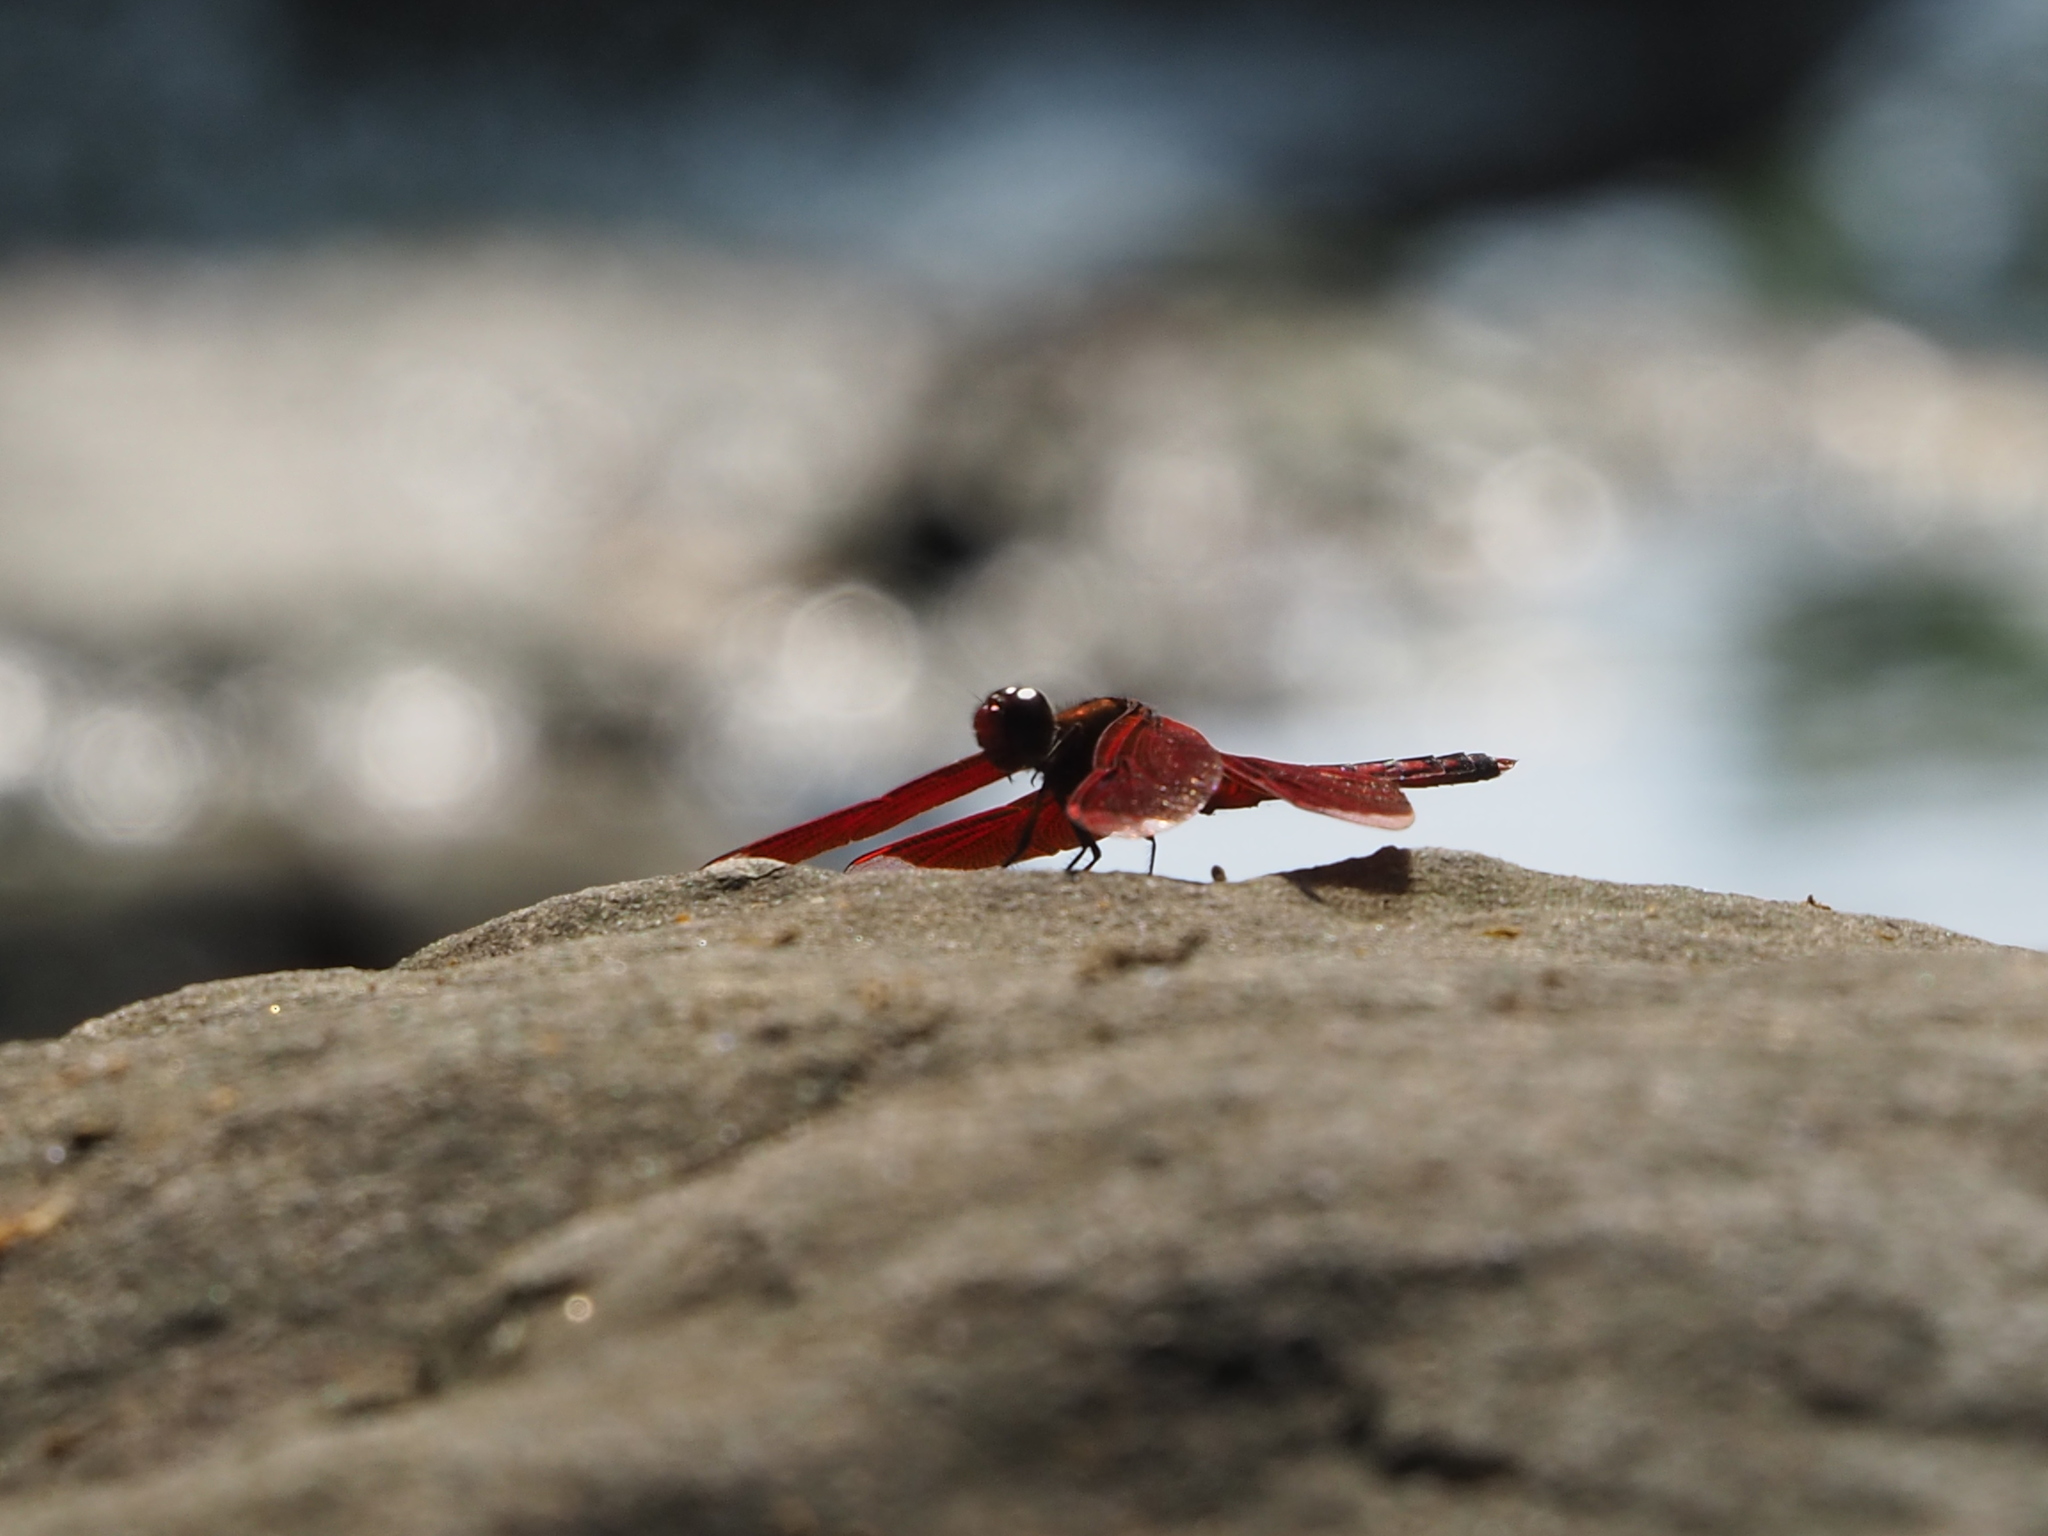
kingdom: Animalia
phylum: Arthropoda
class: Insecta
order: Odonata
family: Libellulidae
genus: Neurothemis
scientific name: Neurothemis taiwanensis
